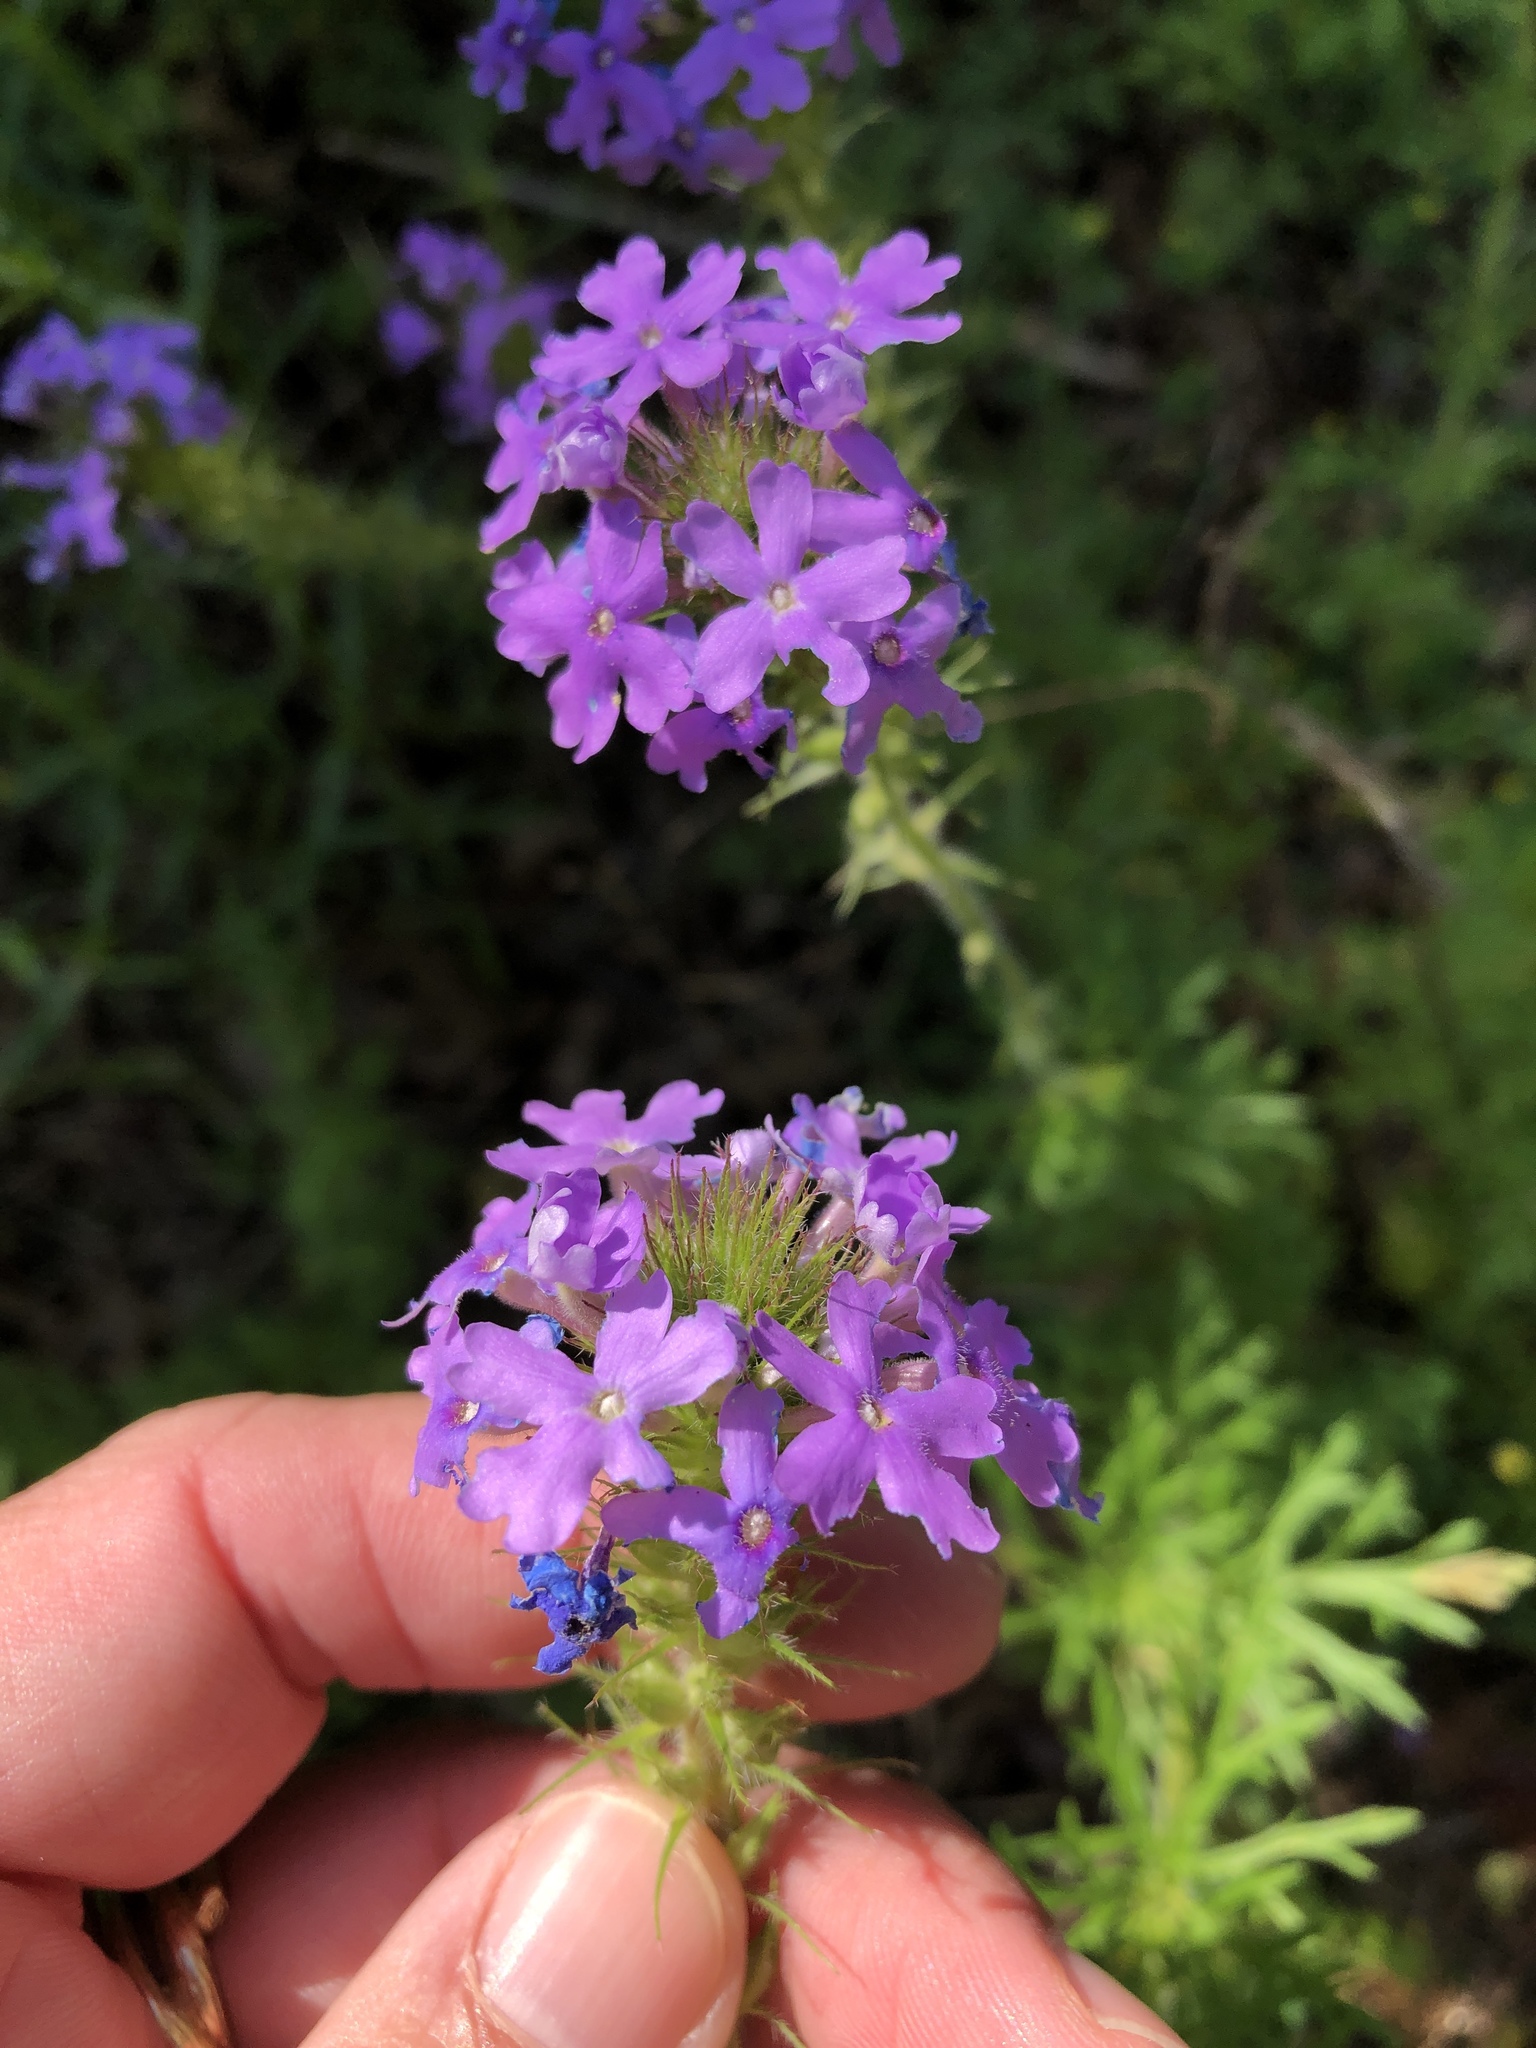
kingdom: Plantae
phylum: Tracheophyta
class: Magnoliopsida
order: Lamiales
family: Verbenaceae
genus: Verbena
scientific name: Verbena bipinnatifida
